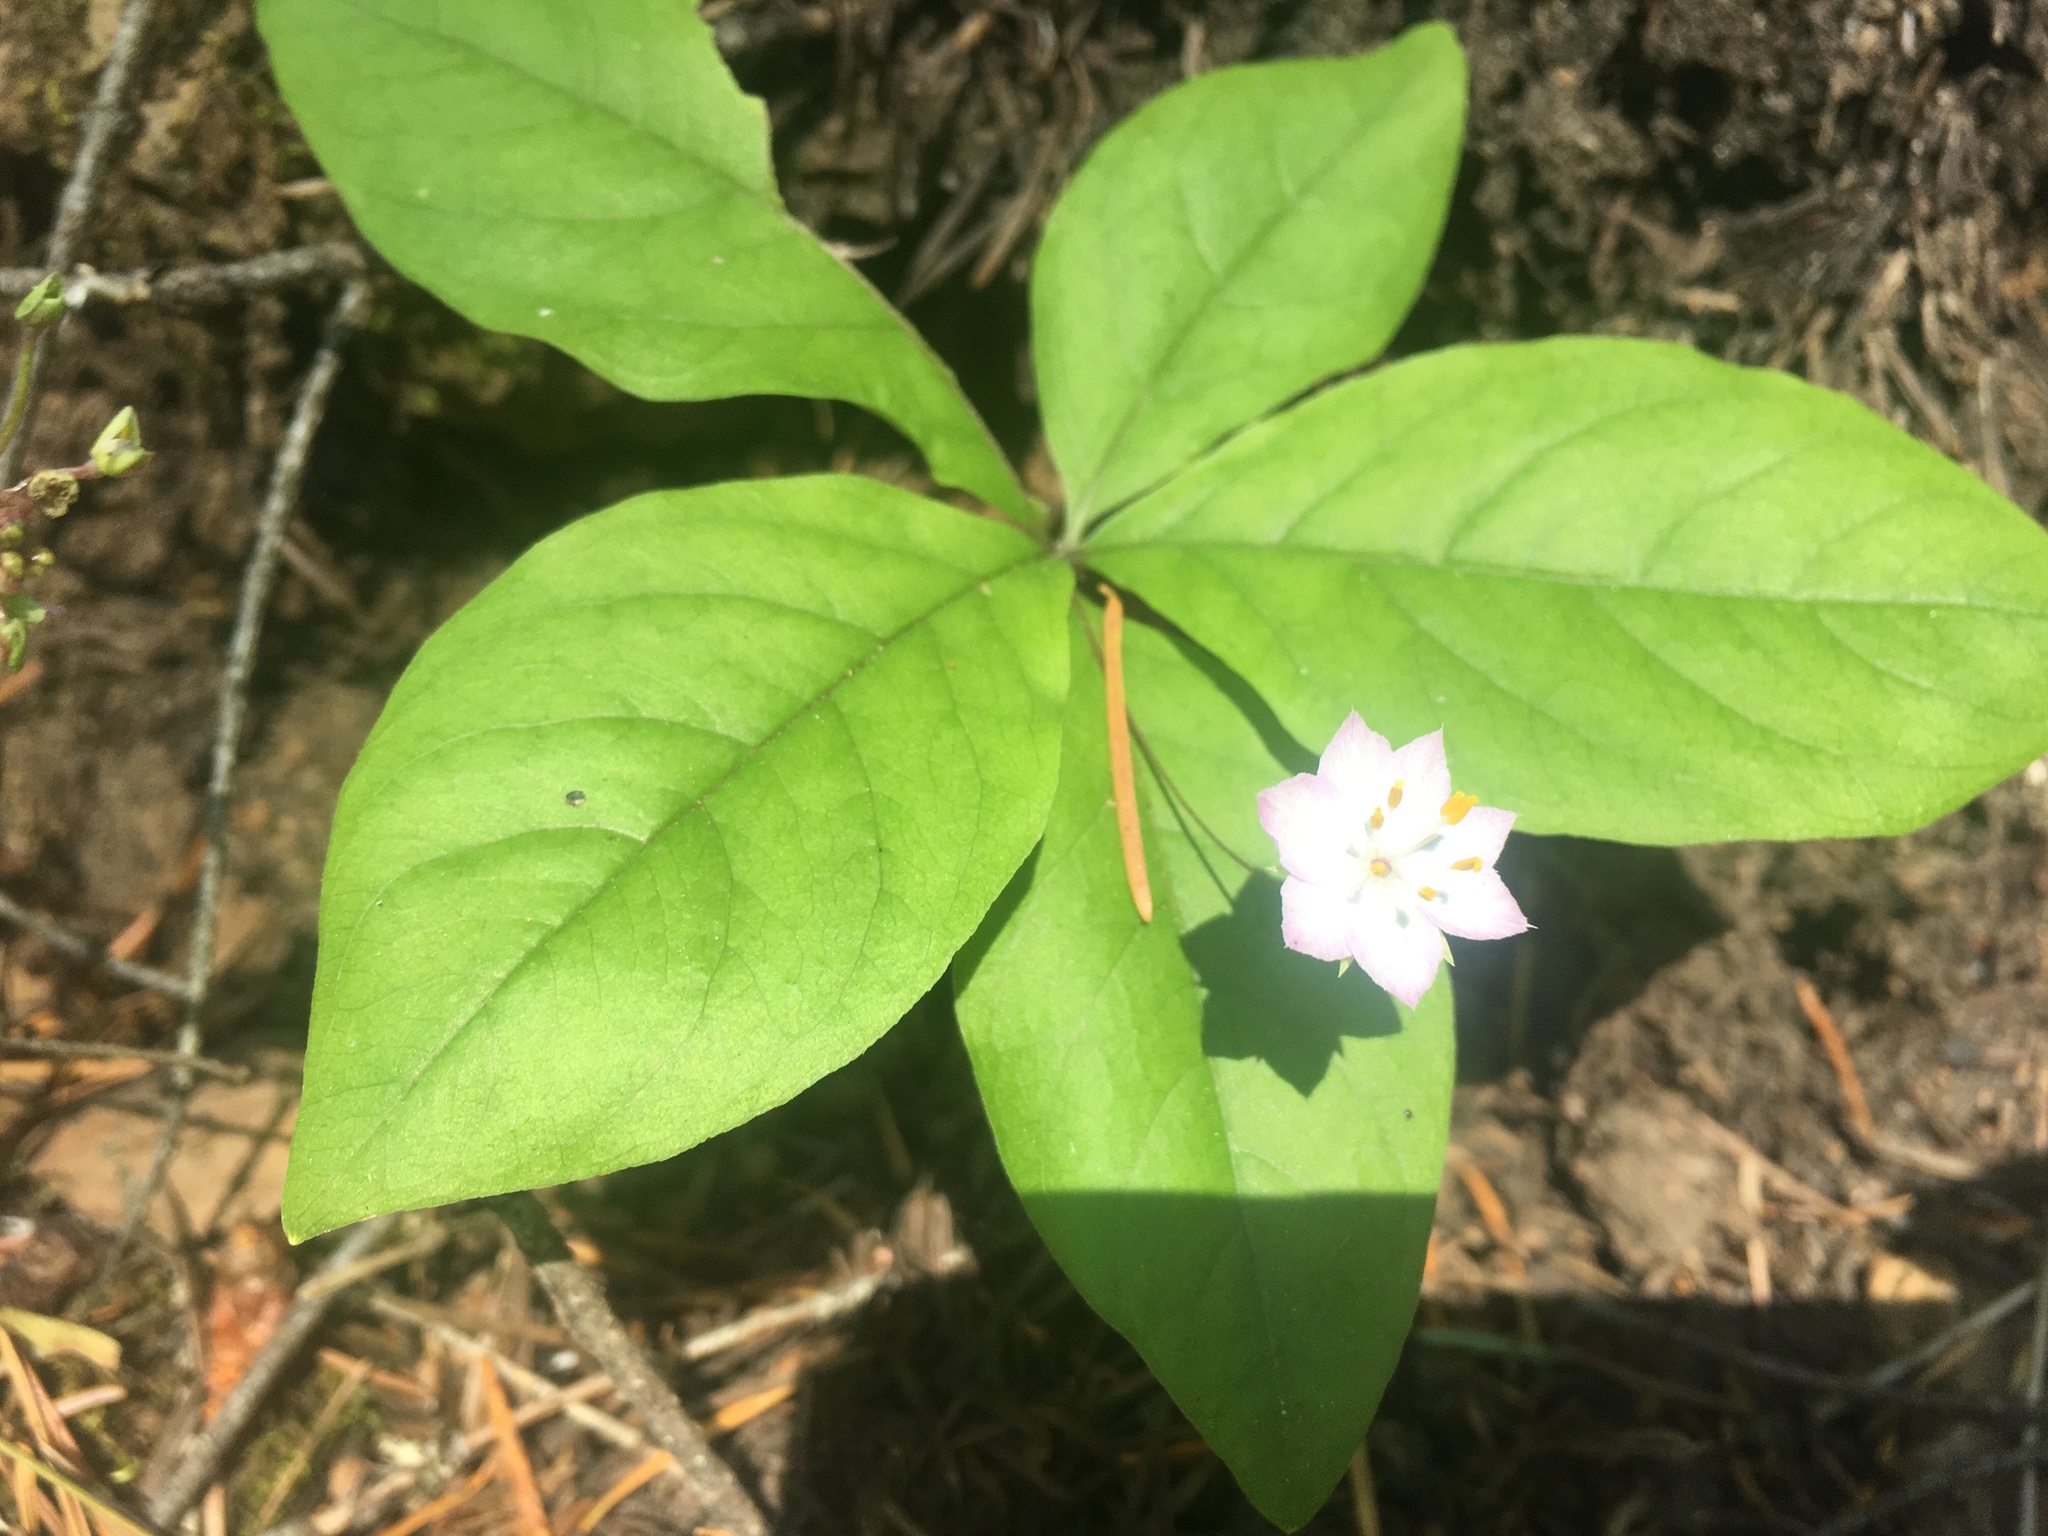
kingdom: Plantae
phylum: Tracheophyta
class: Magnoliopsida
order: Ericales
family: Primulaceae
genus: Lysimachia
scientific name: Lysimachia latifolia
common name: Pacific starflower
